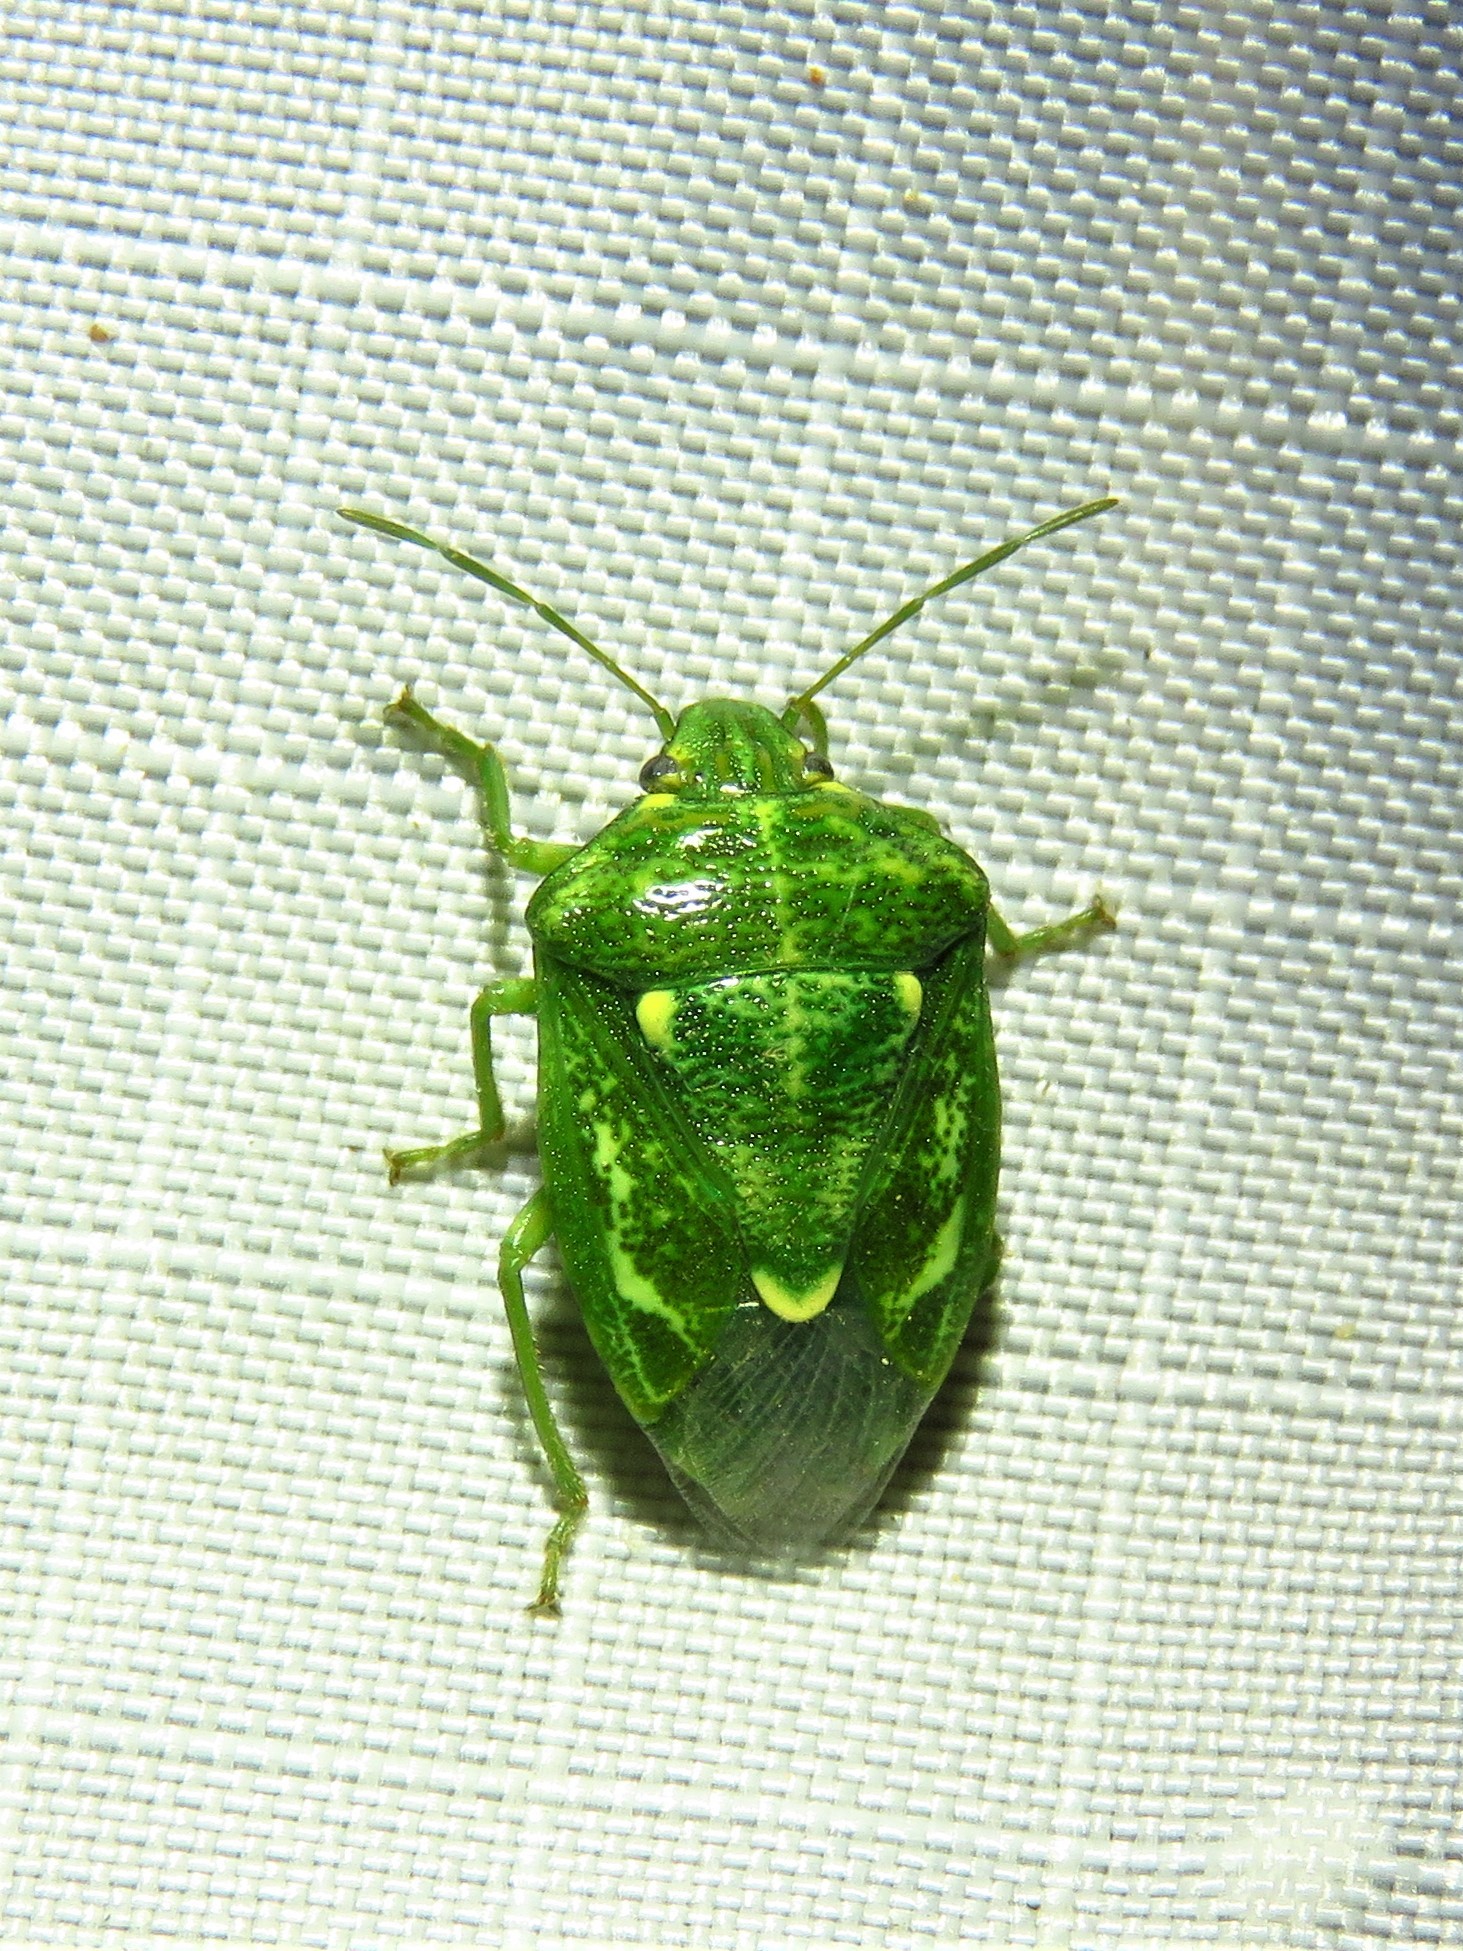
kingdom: Animalia
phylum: Arthropoda
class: Insecta
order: Hemiptera
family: Pentatomidae
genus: Banasa
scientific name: Banasa euchlora
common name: Cedar berry bug
